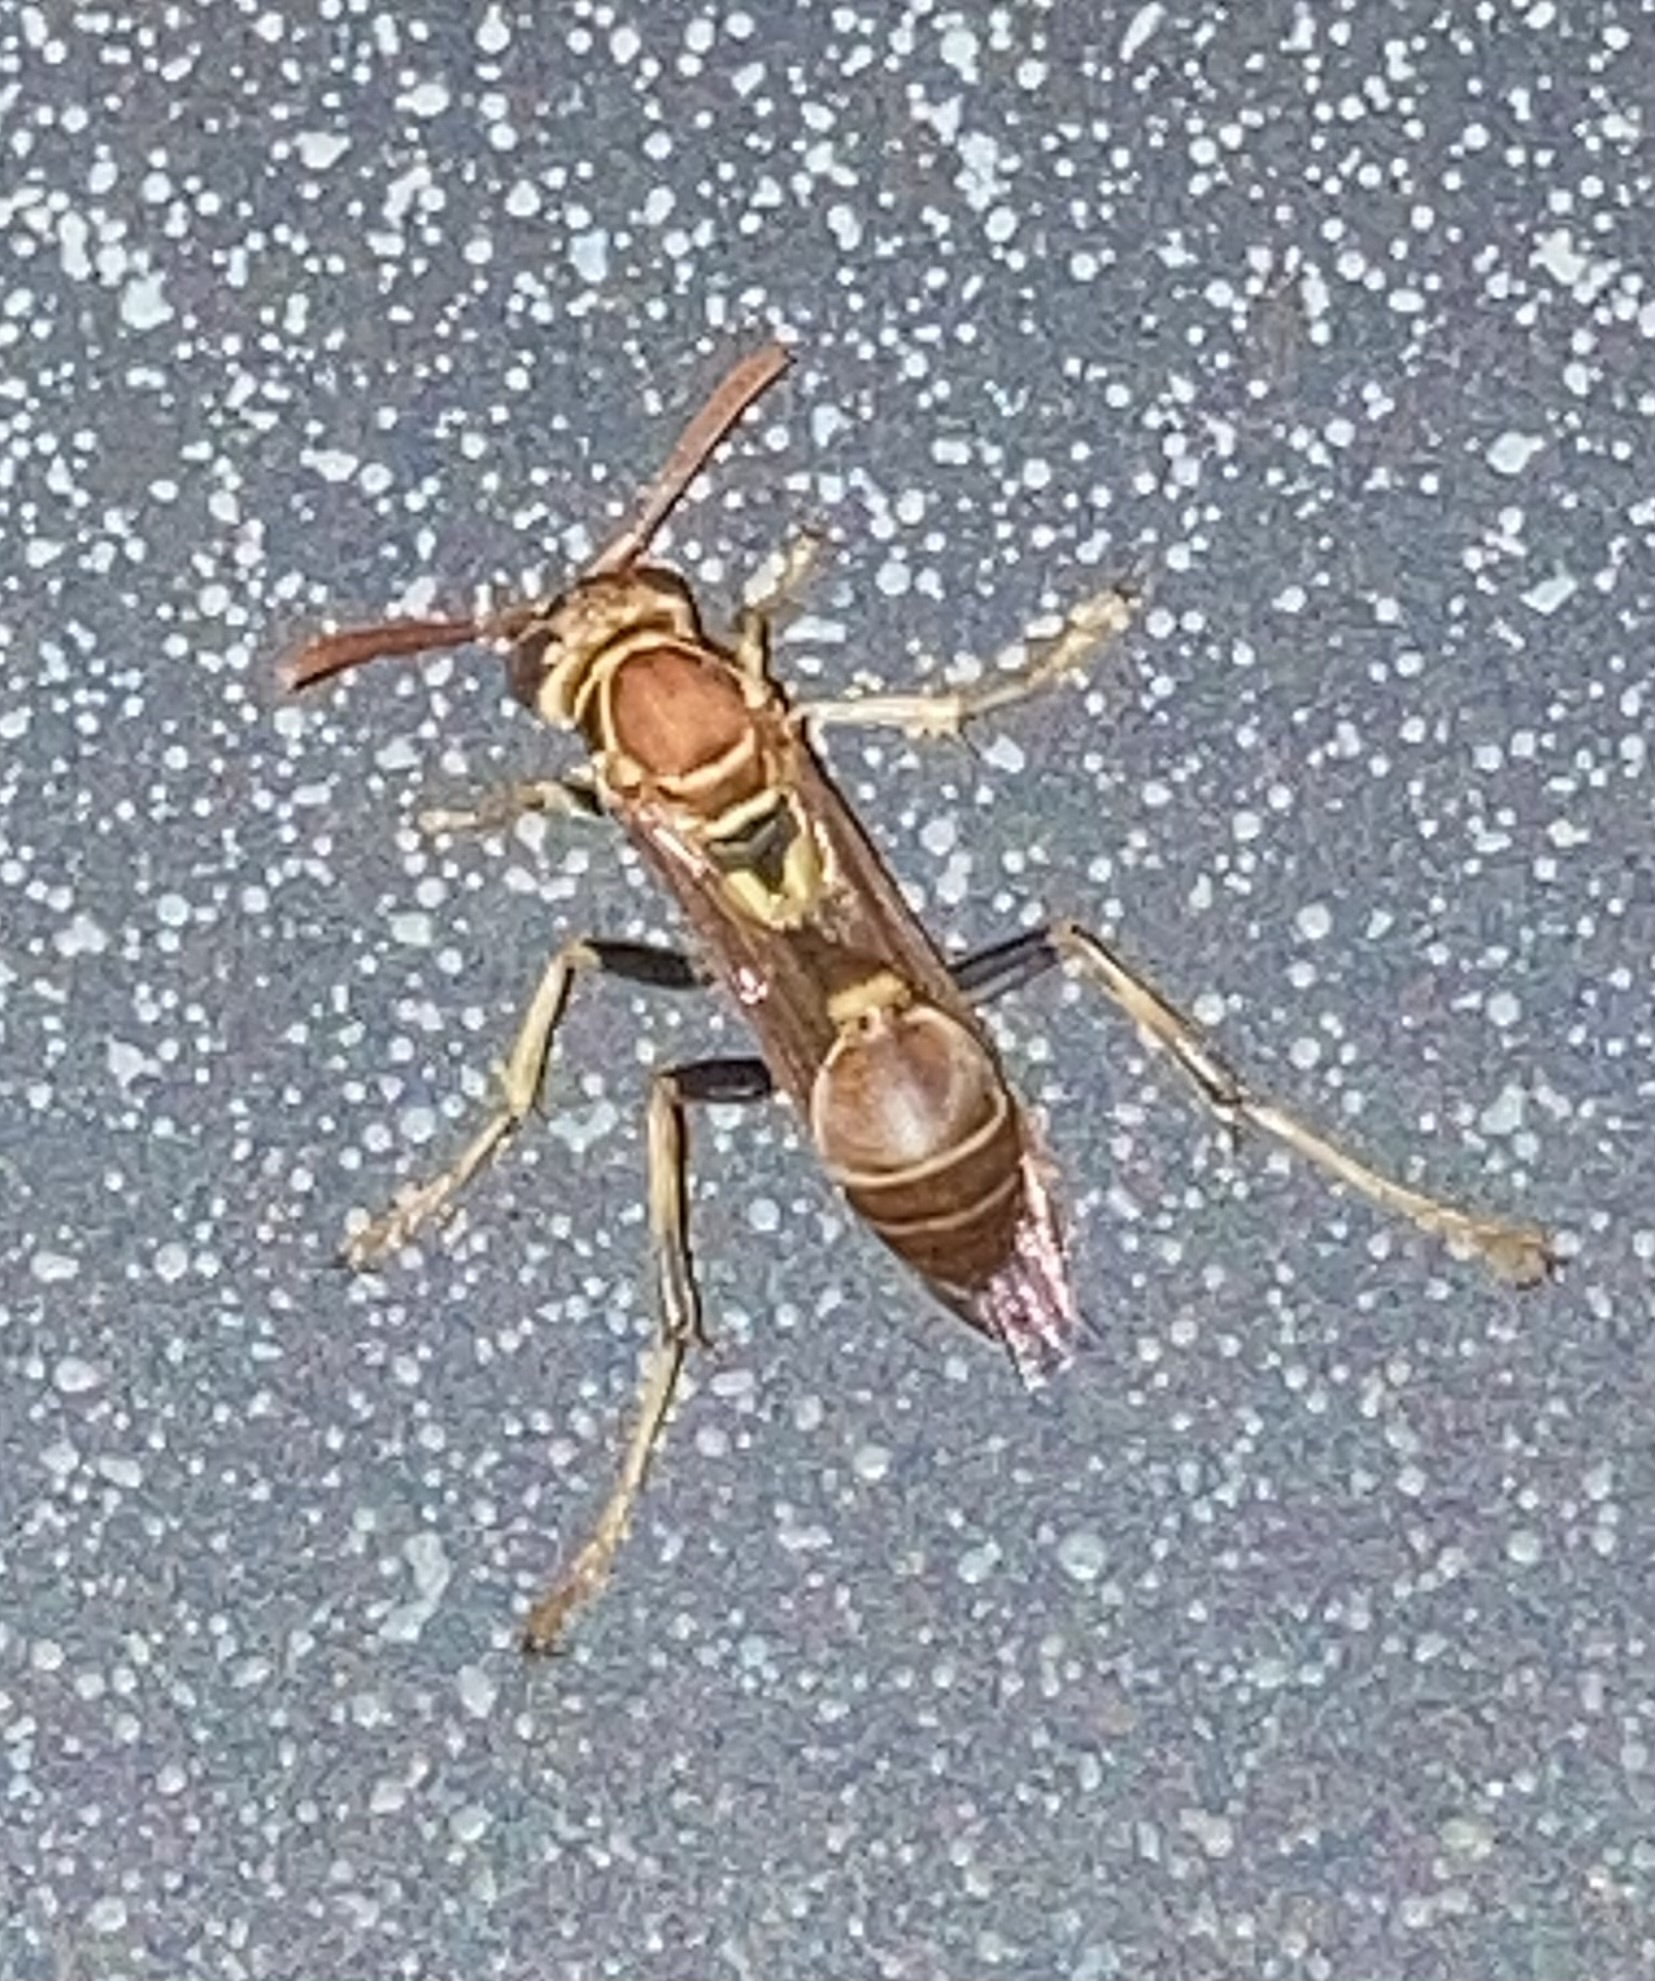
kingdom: Animalia
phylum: Arthropoda
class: Insecta
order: Hymenoptera
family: Vespidae
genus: Mischocyttarus
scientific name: Mischocyttarus mexicanus
